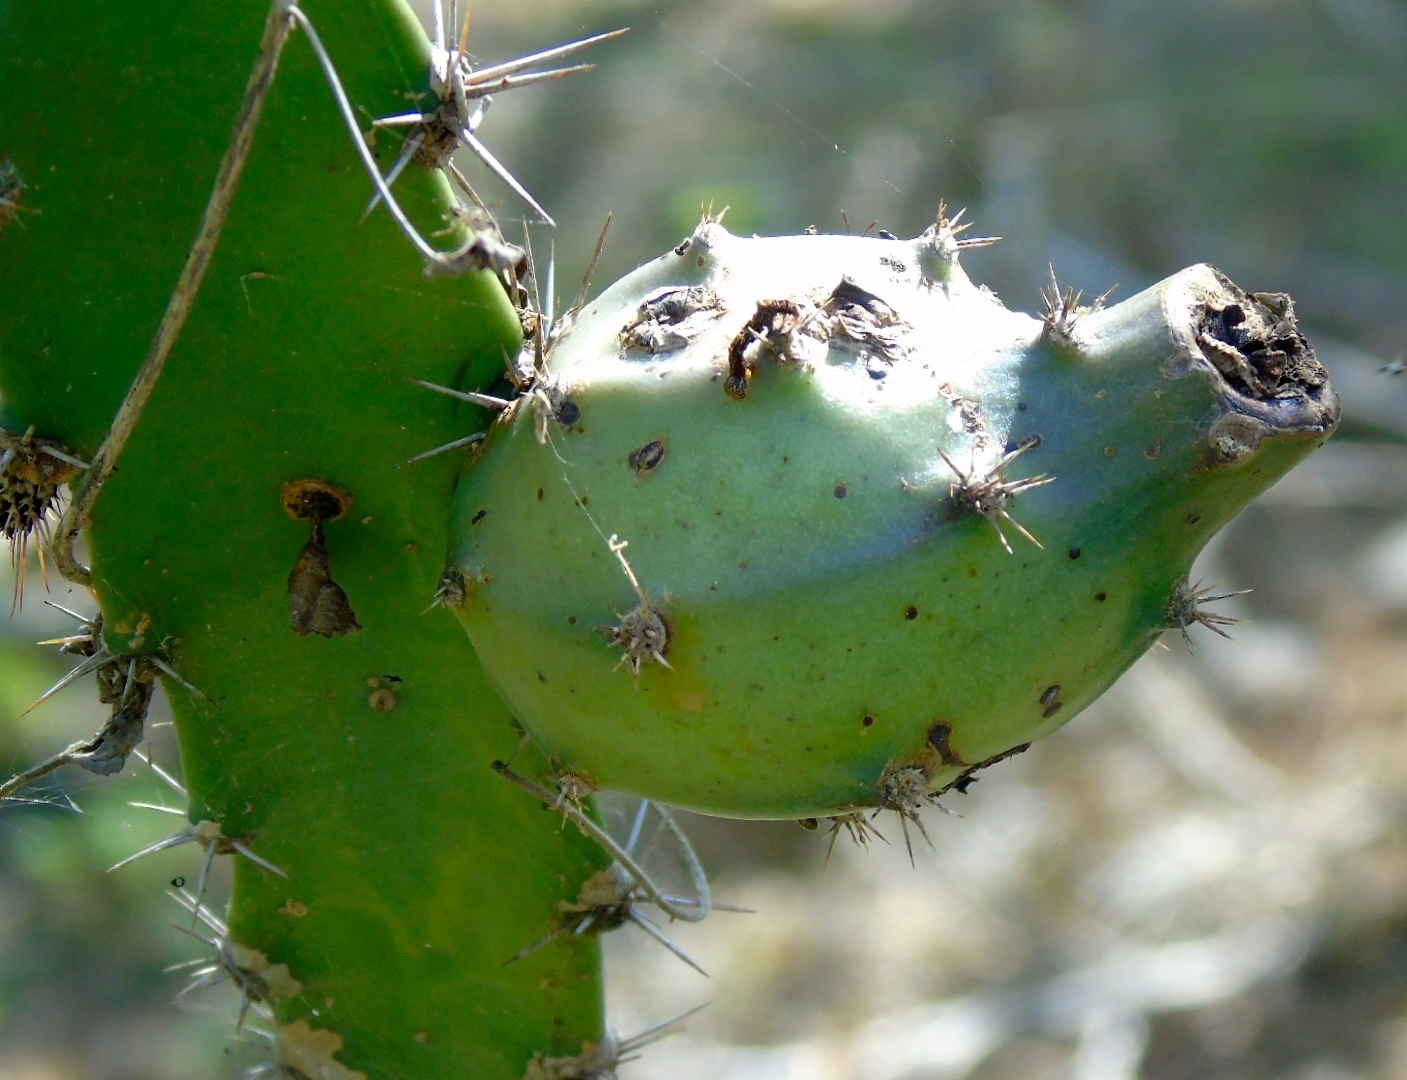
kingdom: Plantae
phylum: Tracheophyta
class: Magnoliopsida
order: Caryophyllales
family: Cactaceae
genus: Acanthocereus
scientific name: Acanthocereus tetragonus
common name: Triangle cactus
